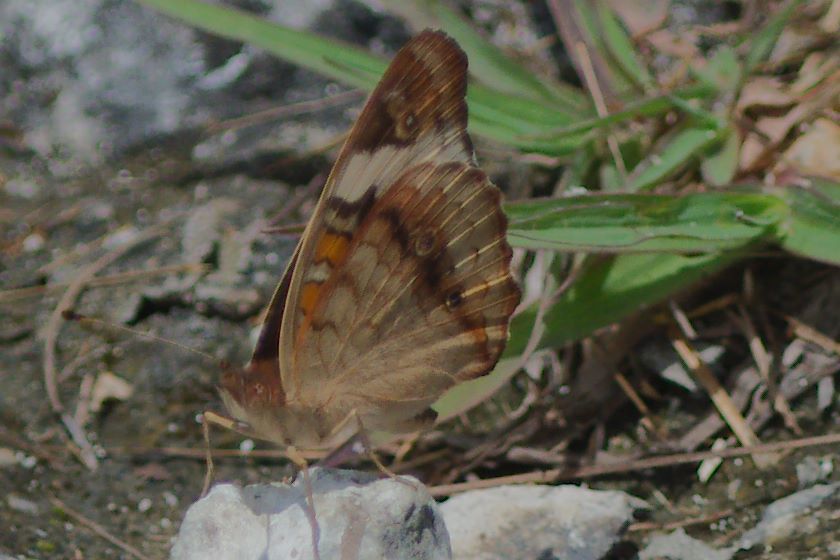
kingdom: Animalia
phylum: Arthropoda
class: Insecta
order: Lepidoptera
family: Nymphalidae
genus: Junonia
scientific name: Junonia coenia
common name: Common buckeye
